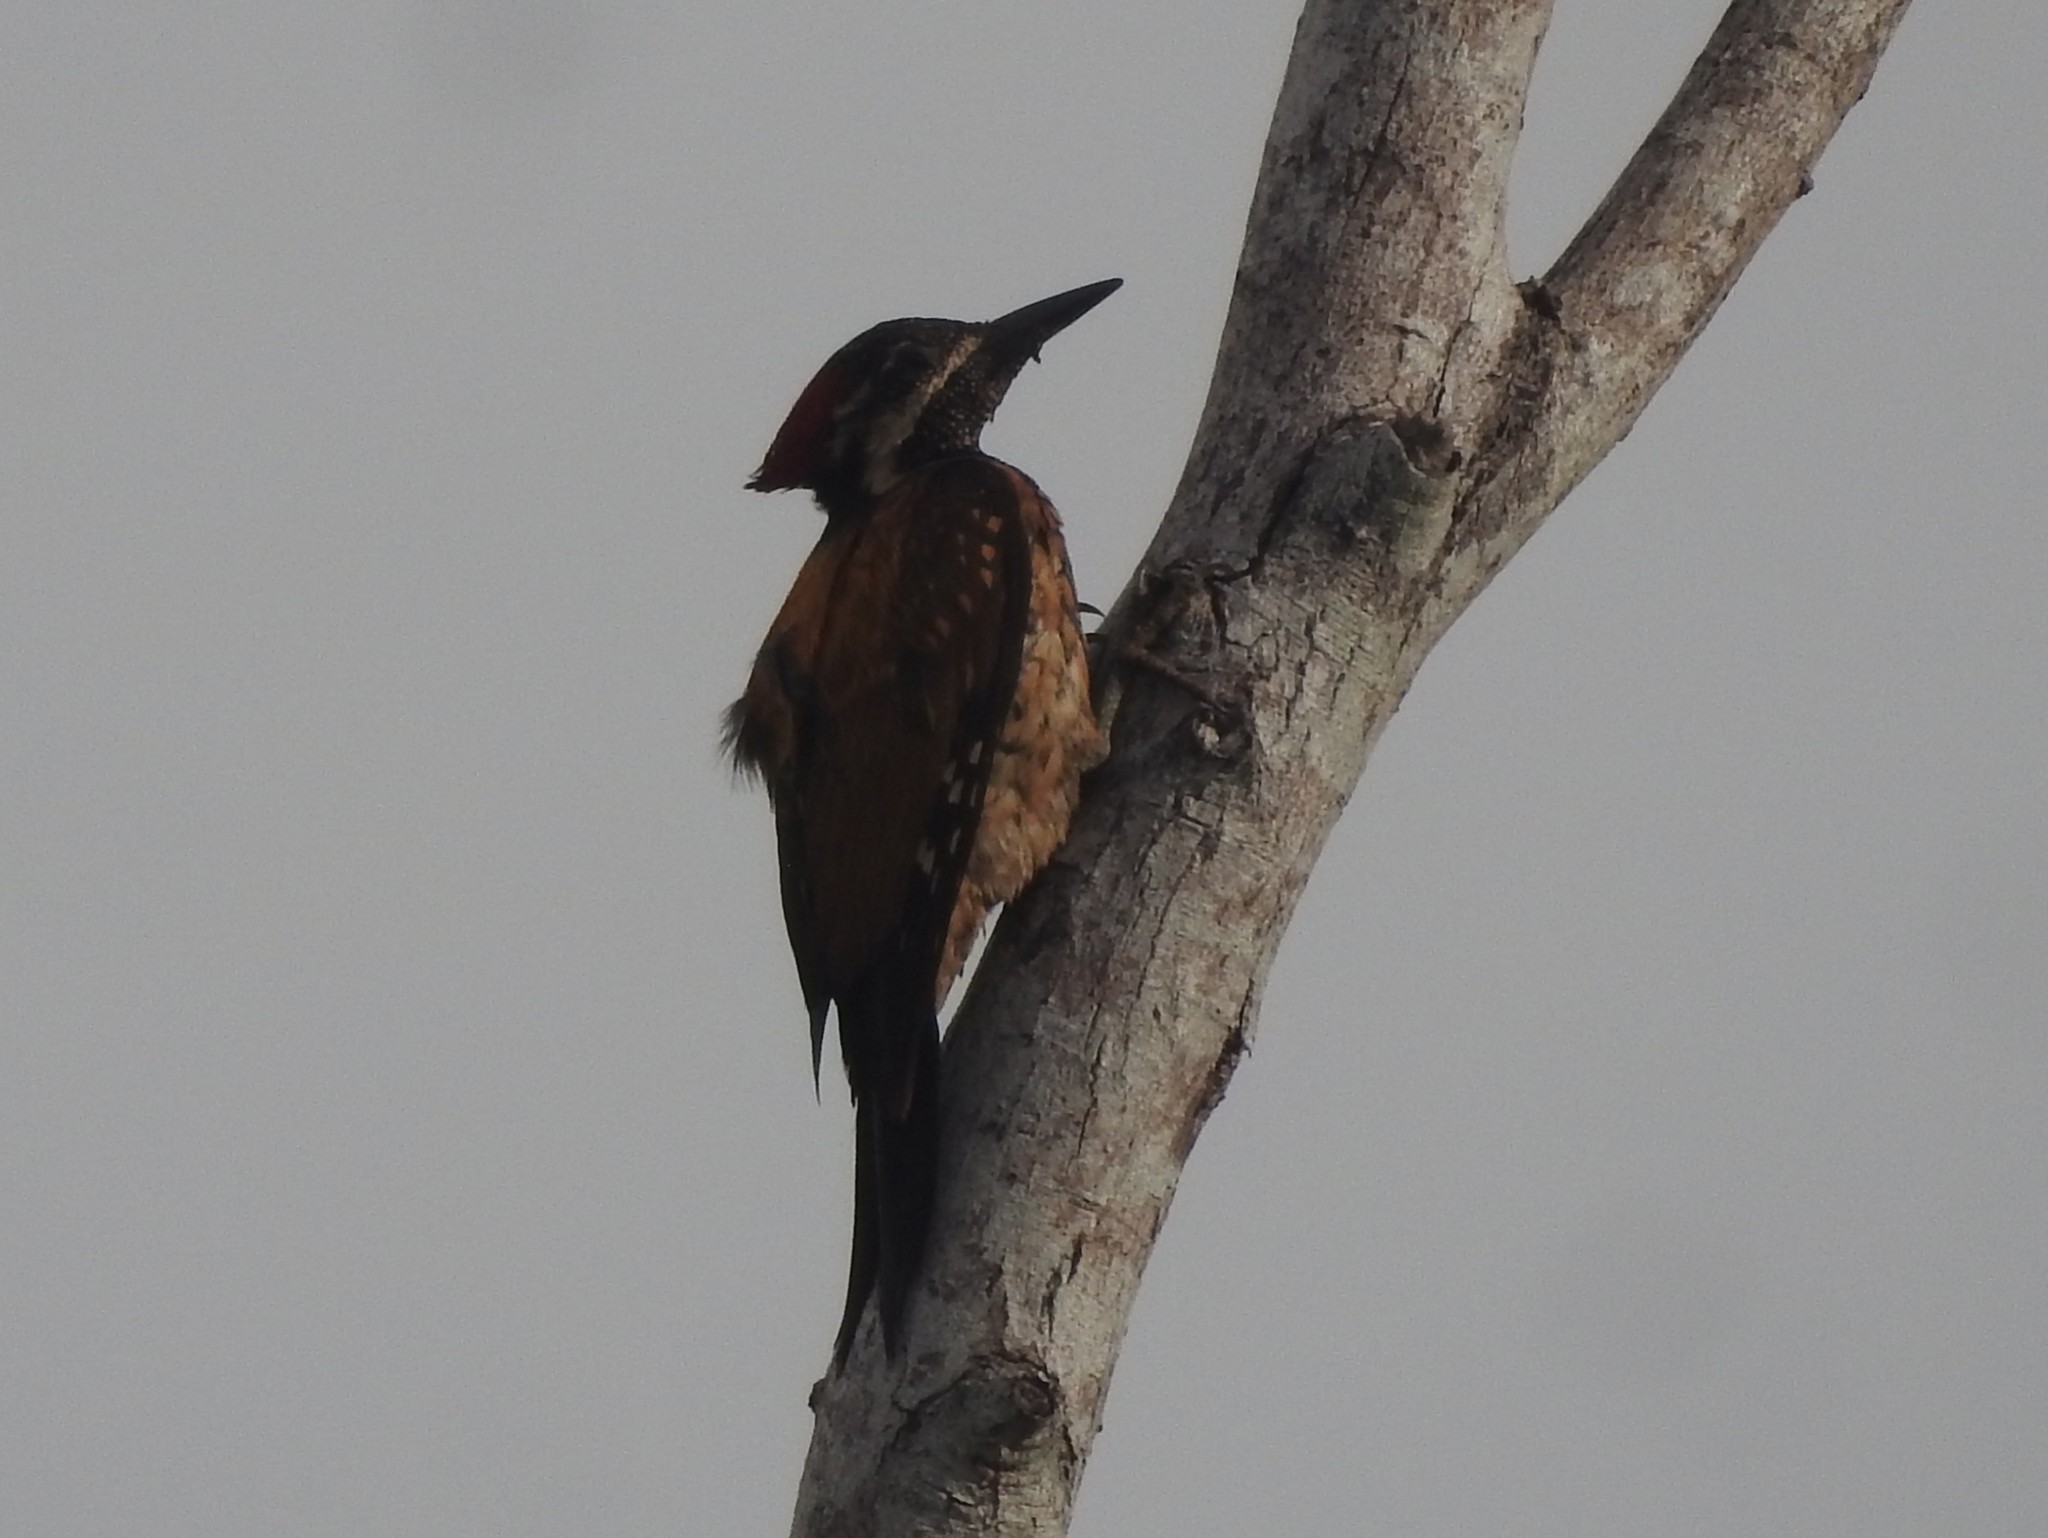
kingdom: Animalia
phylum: Chordata
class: Aves
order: Piciformes
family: Picidae
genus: Dinopium
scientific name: Dinopium benghalense
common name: Black-rumped flameback
